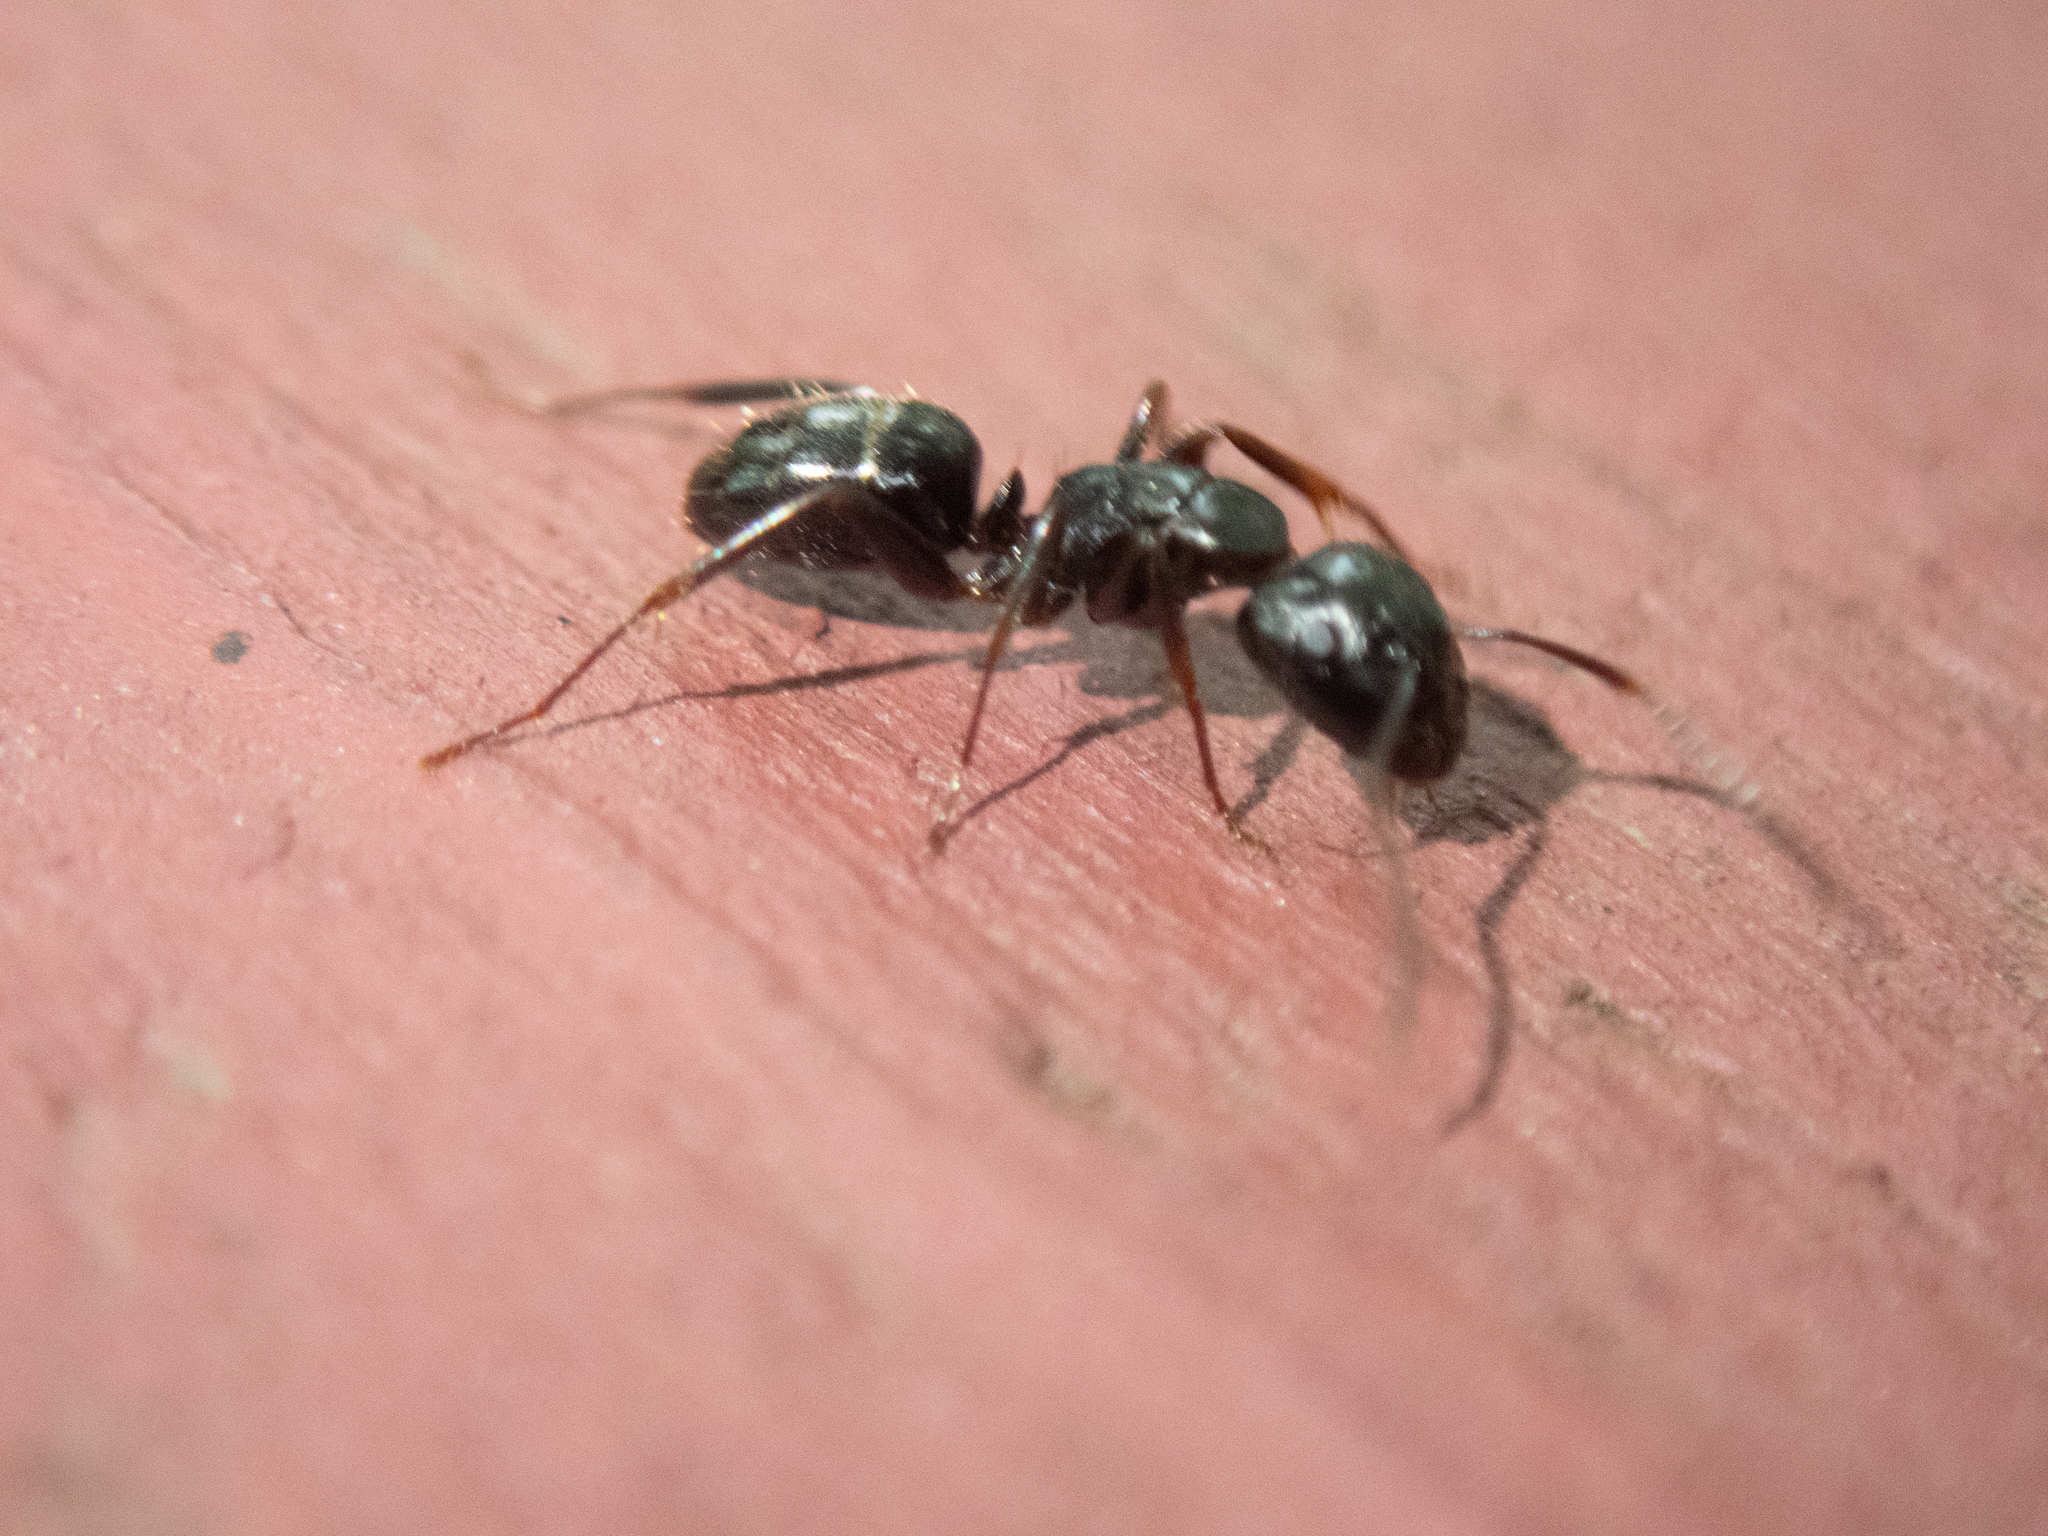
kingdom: Animalia
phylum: Arthropoda
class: Insecta
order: Hymenoptera
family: Formicidae
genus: Camponotus
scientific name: Camponotus nearcticus
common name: Smaller carpenter ant
